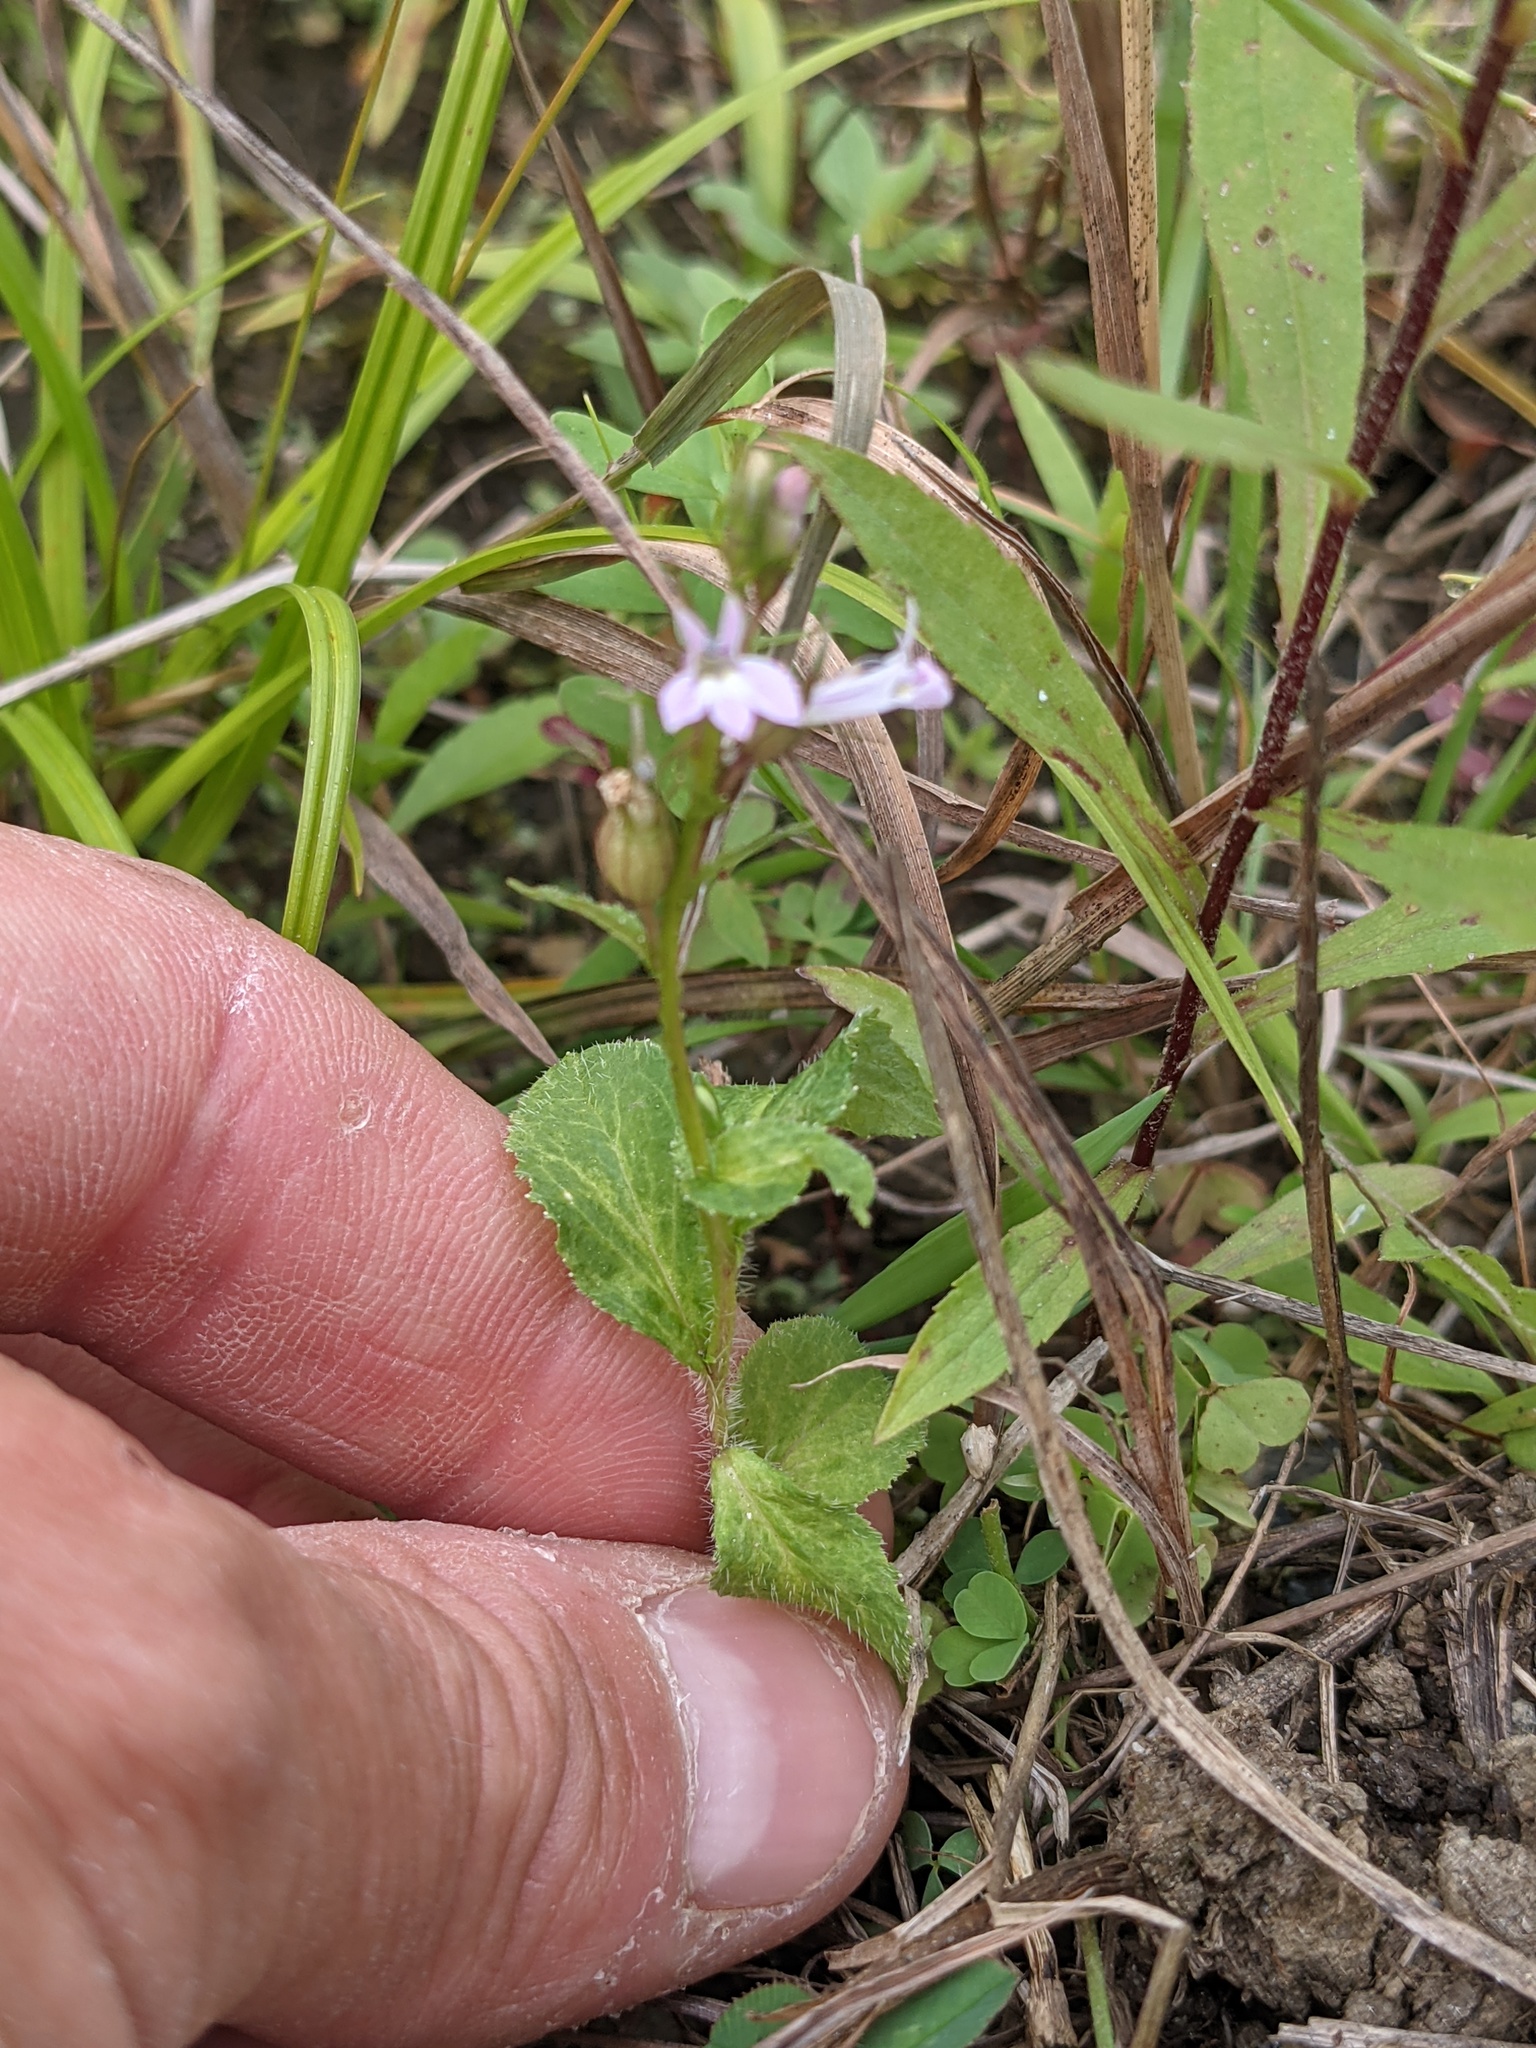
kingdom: Plantae
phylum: Tracheophyta
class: Magnoliopsida
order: Asterales
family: Campanulaceae
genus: Lobelia
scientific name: Lobelia inflata
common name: Indian tobacco
